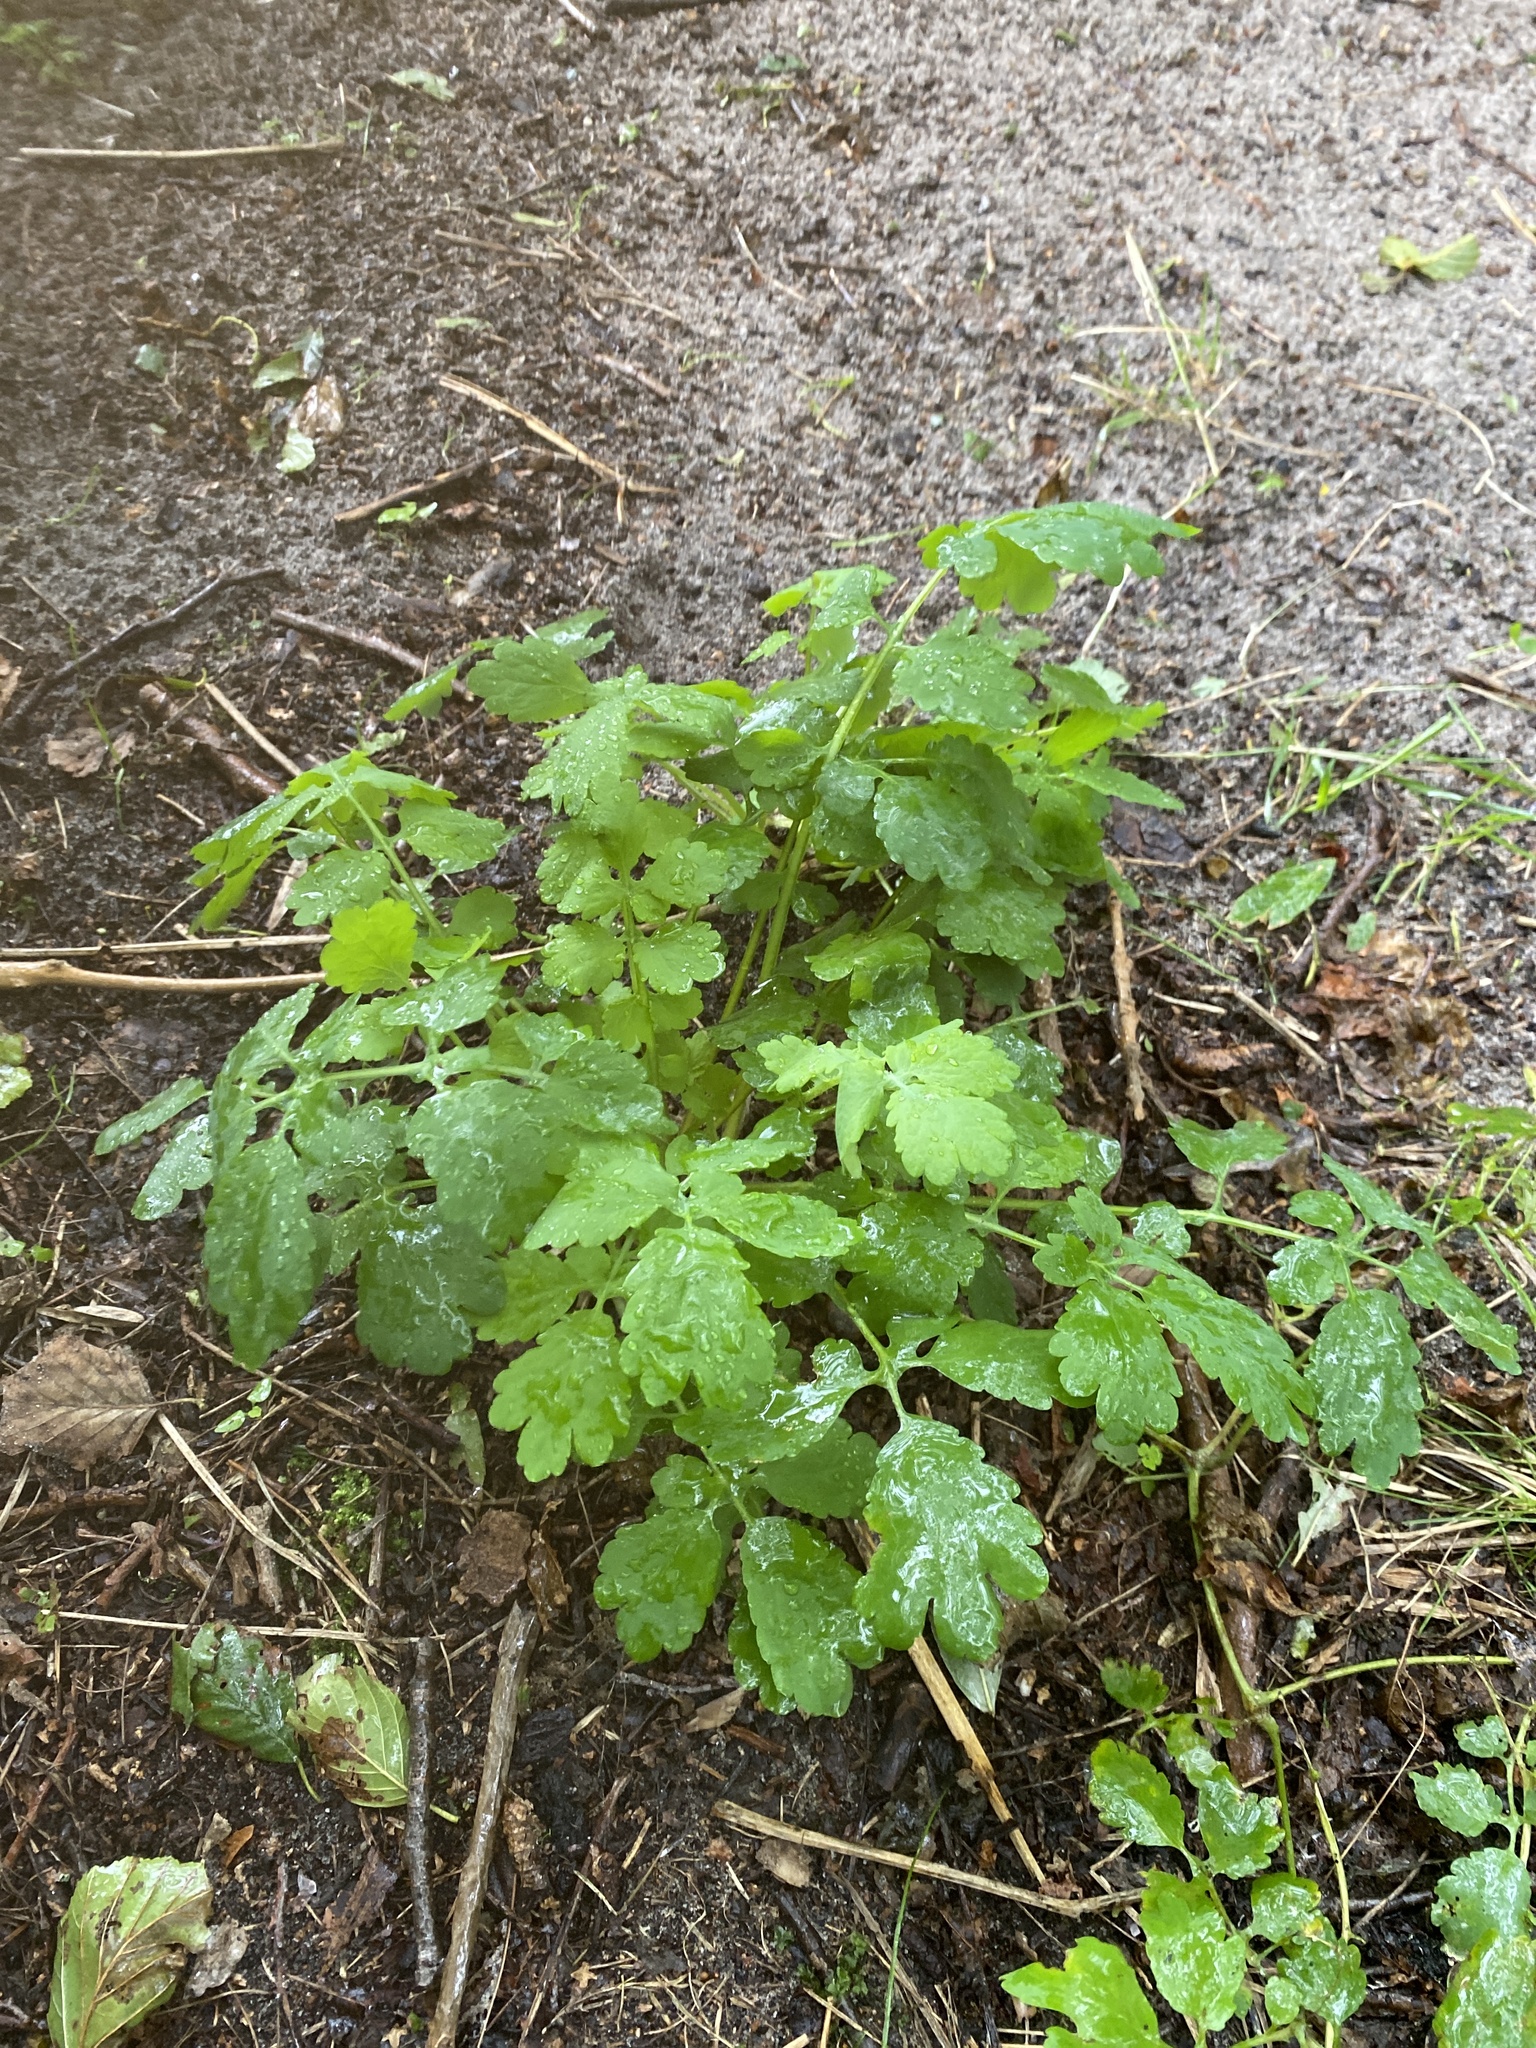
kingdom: Plantae
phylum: Tracheophyta
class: Magnoliopsida
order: Ranunculales
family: Papaveraceae
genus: Chelidonium
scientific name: Chelidonium majus
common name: Greater celandine
